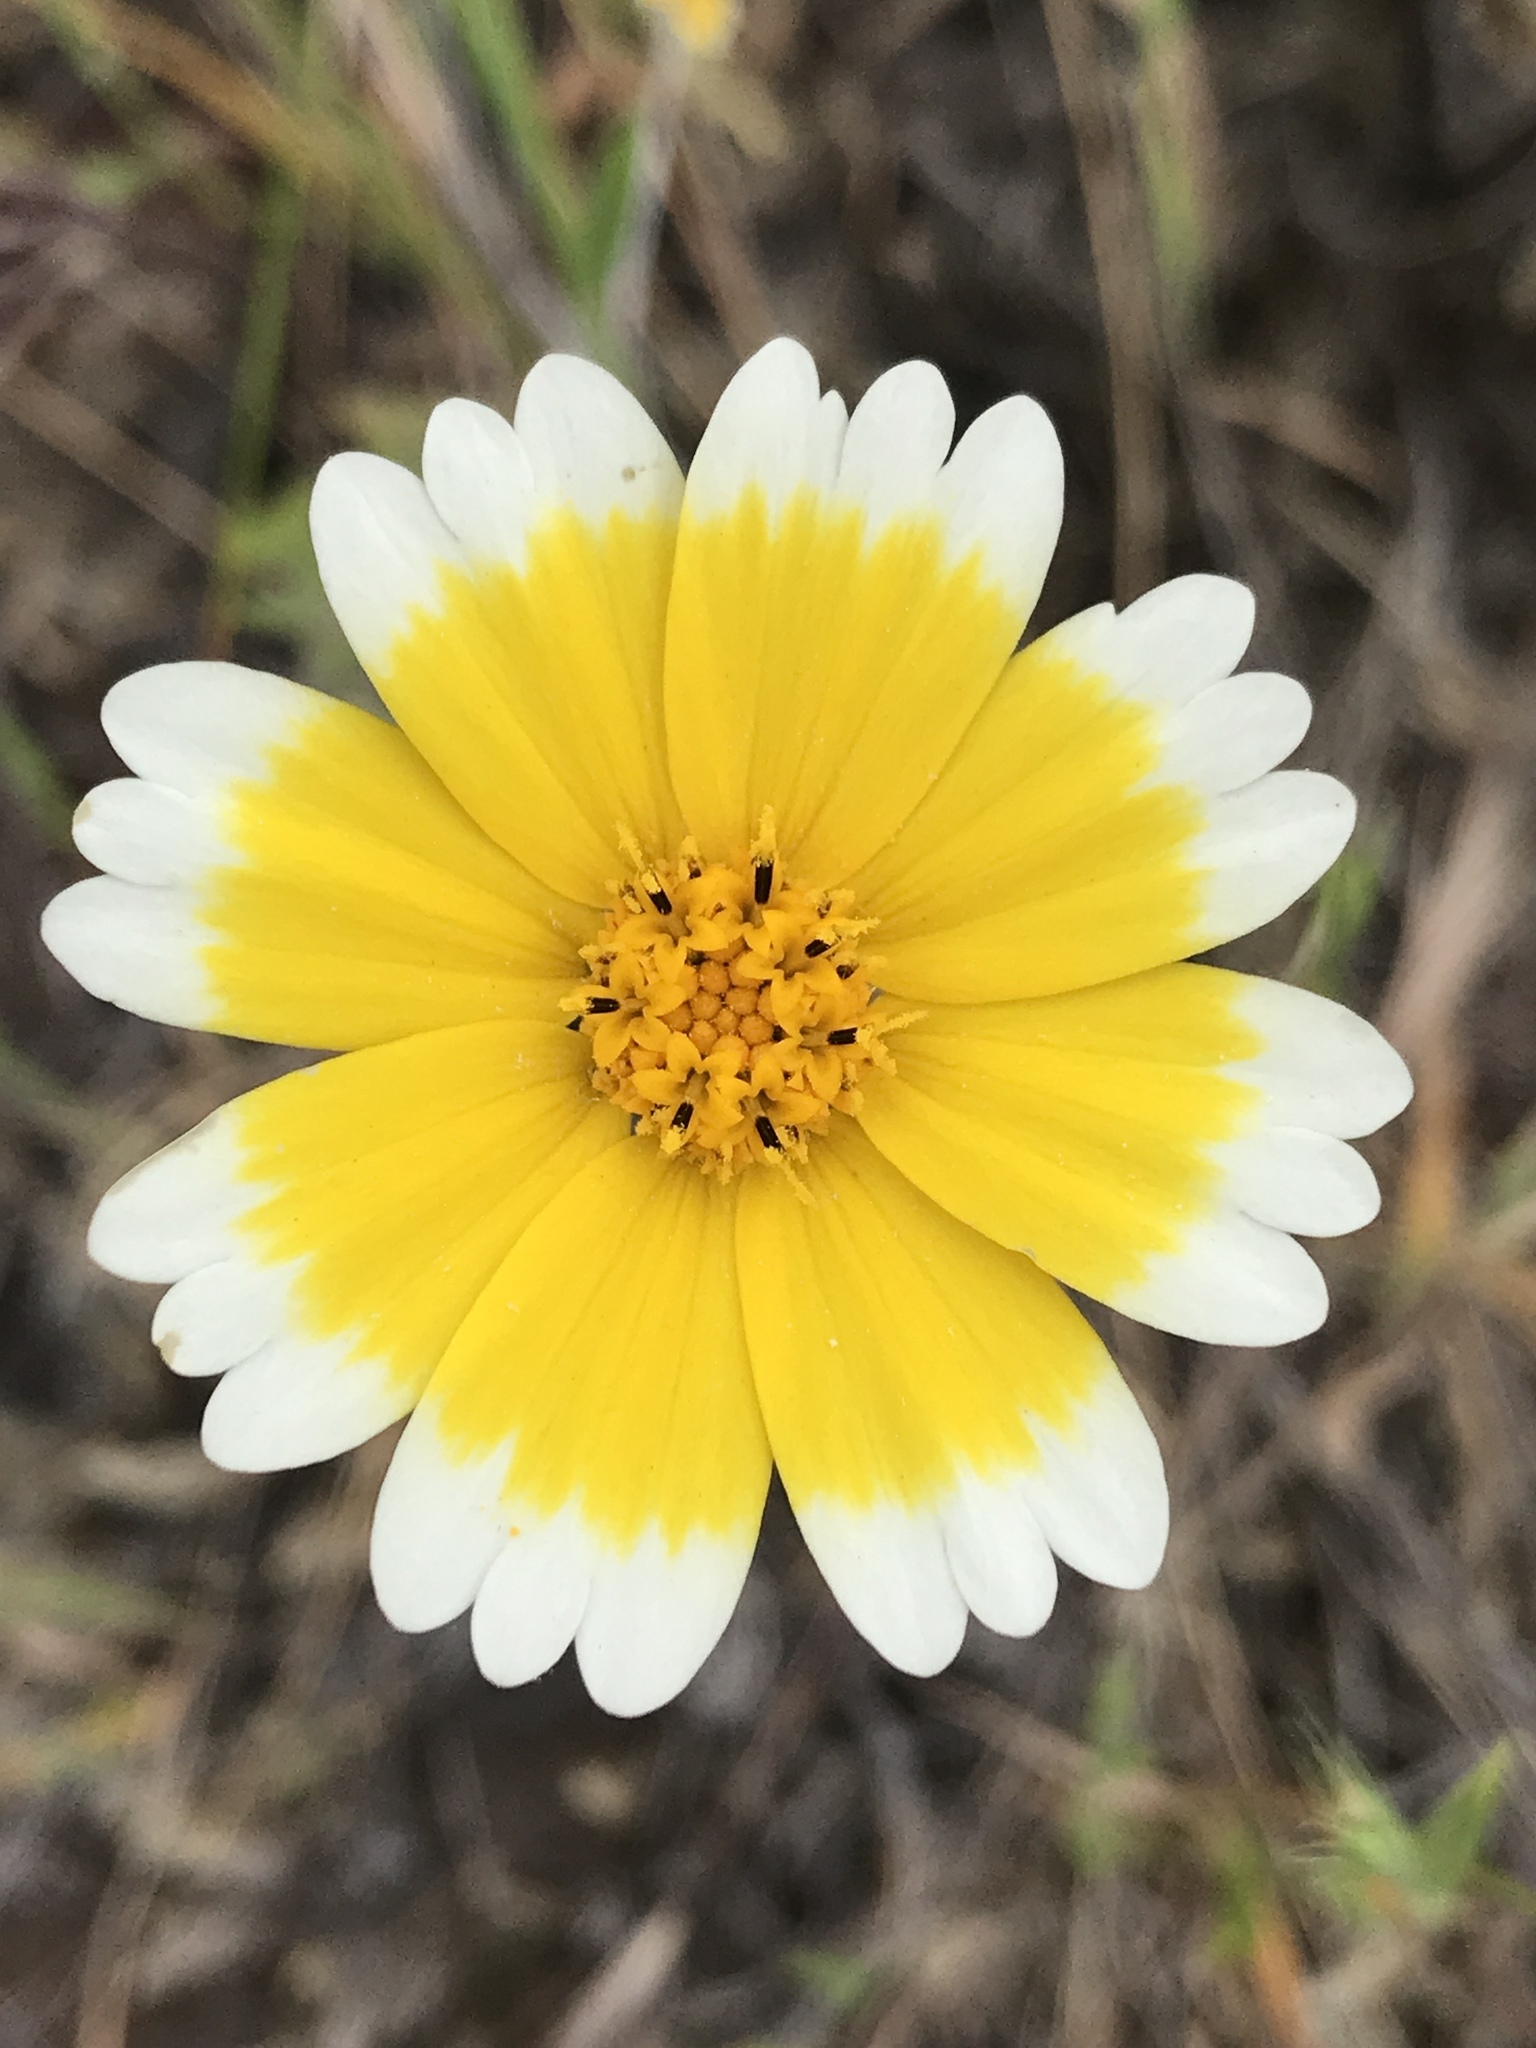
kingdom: Plantae
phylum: Tracheophyta
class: Magnoliopsida
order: Asterales
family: Asteraceae
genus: Layia
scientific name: Layia platyglossa
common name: Tidy-tips
